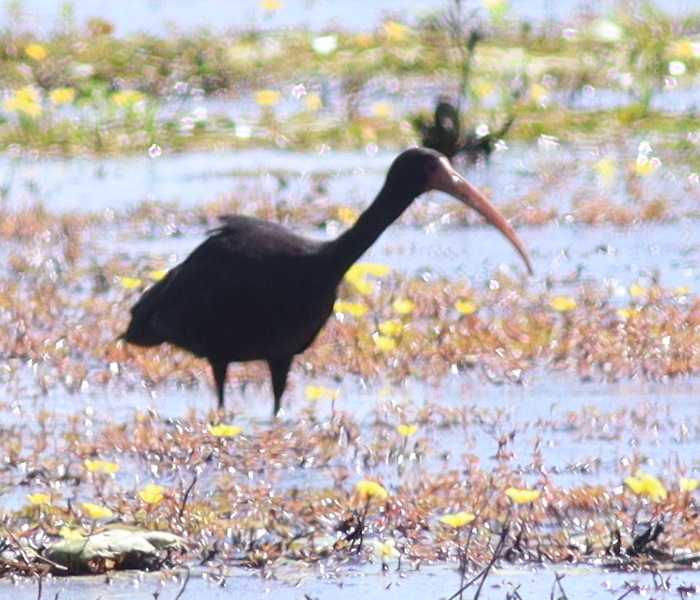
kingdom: Animalia
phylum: Chordata
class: Aves
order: Pelecaniformes
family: Threskiornithidae
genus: Phimosus
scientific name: Phimosus infuscatus
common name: Bare-faced ibis
